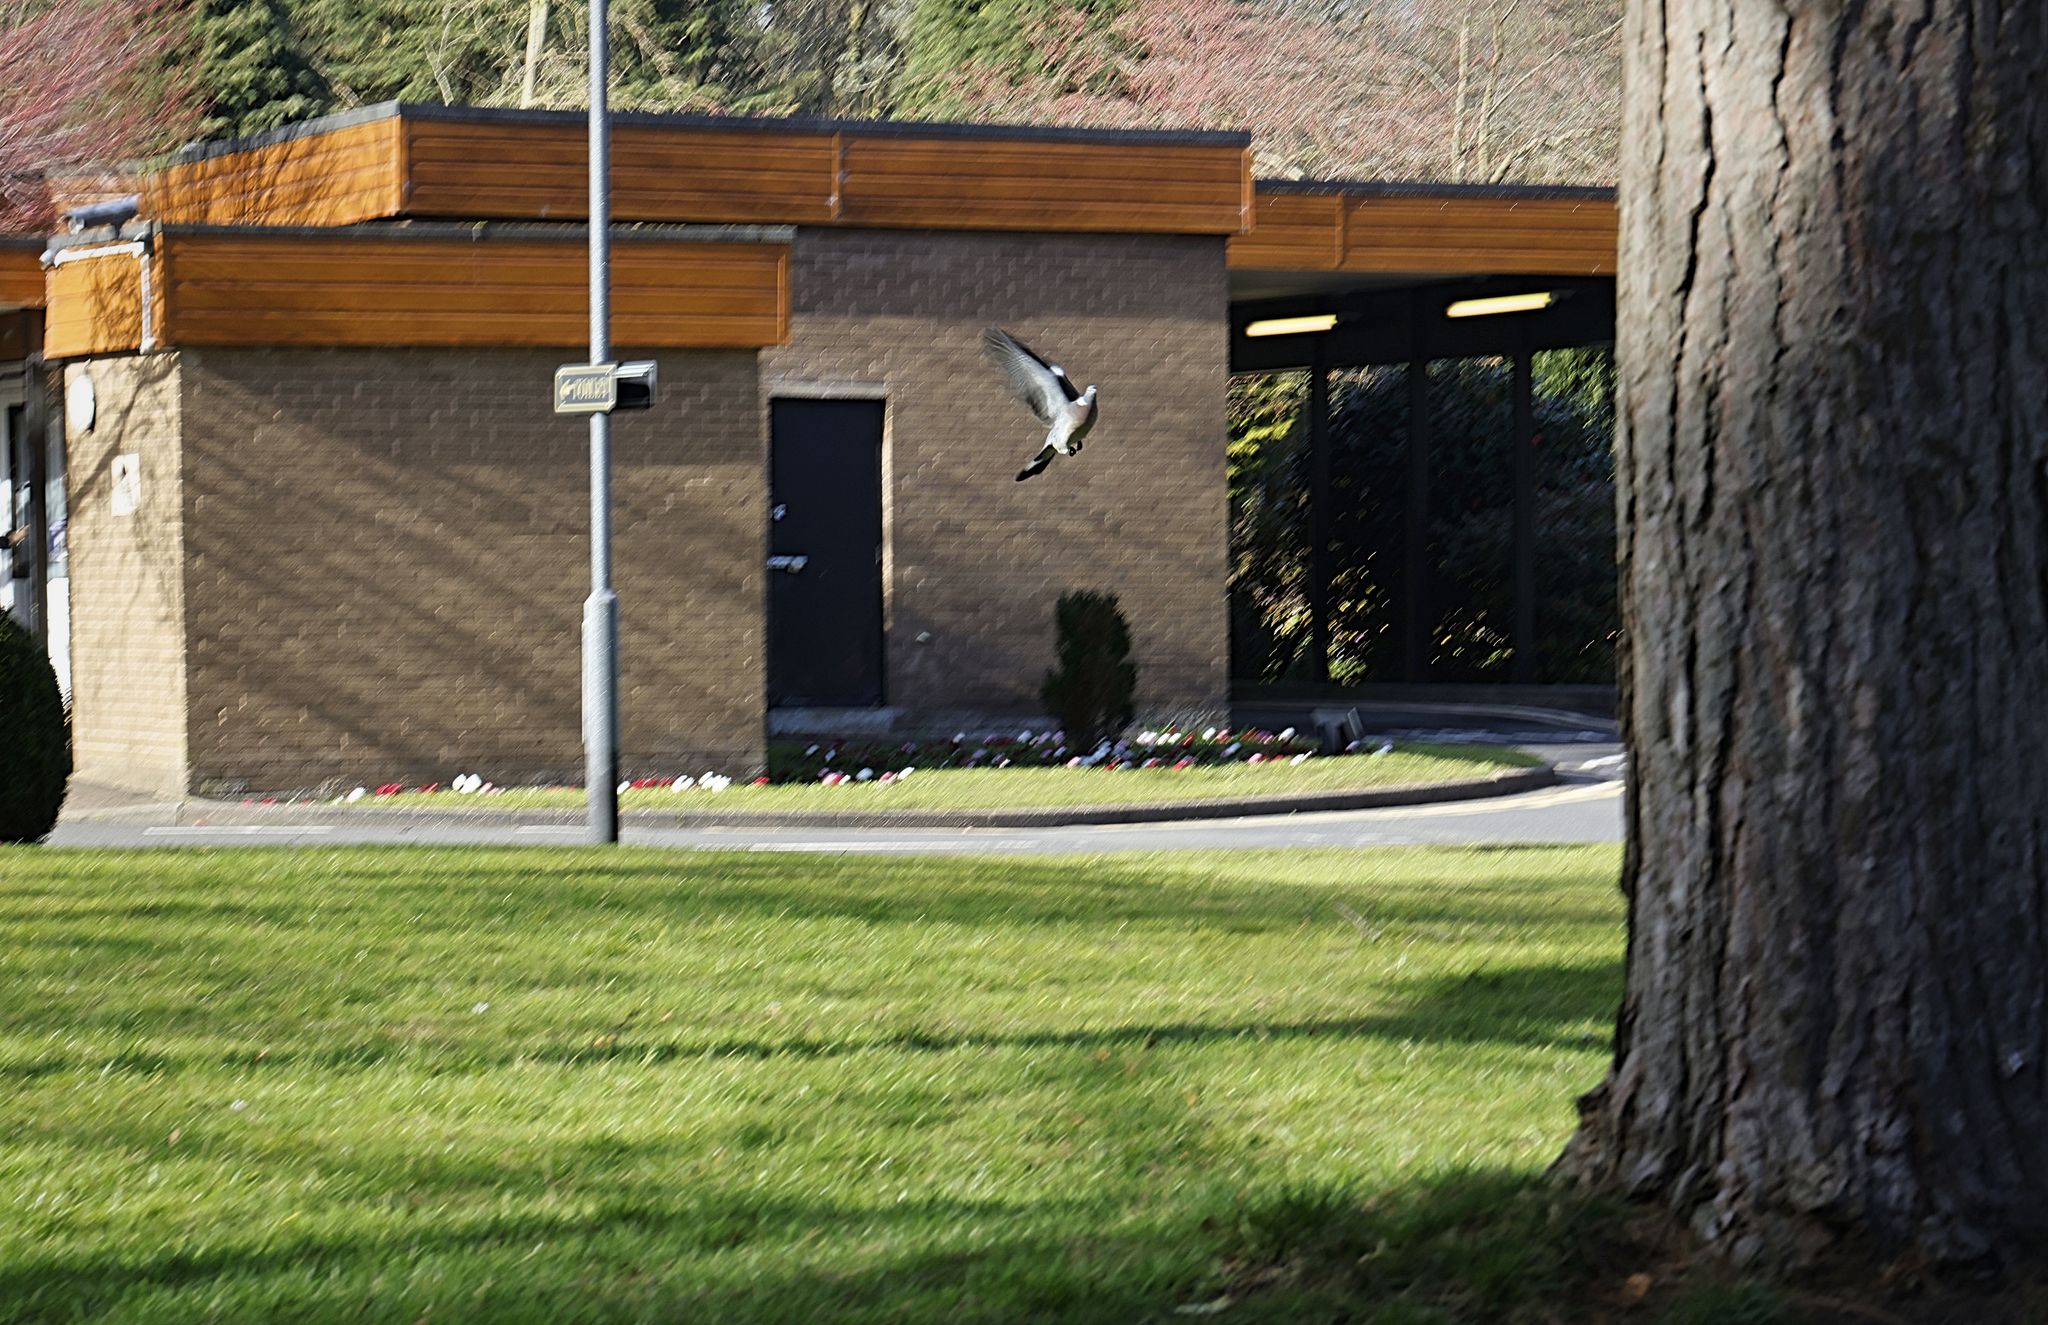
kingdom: Animalia
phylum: Chordata
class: Aves
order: Columbiformes
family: Columbidae
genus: Columba
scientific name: Columba palumbus
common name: Common wood pigeon
